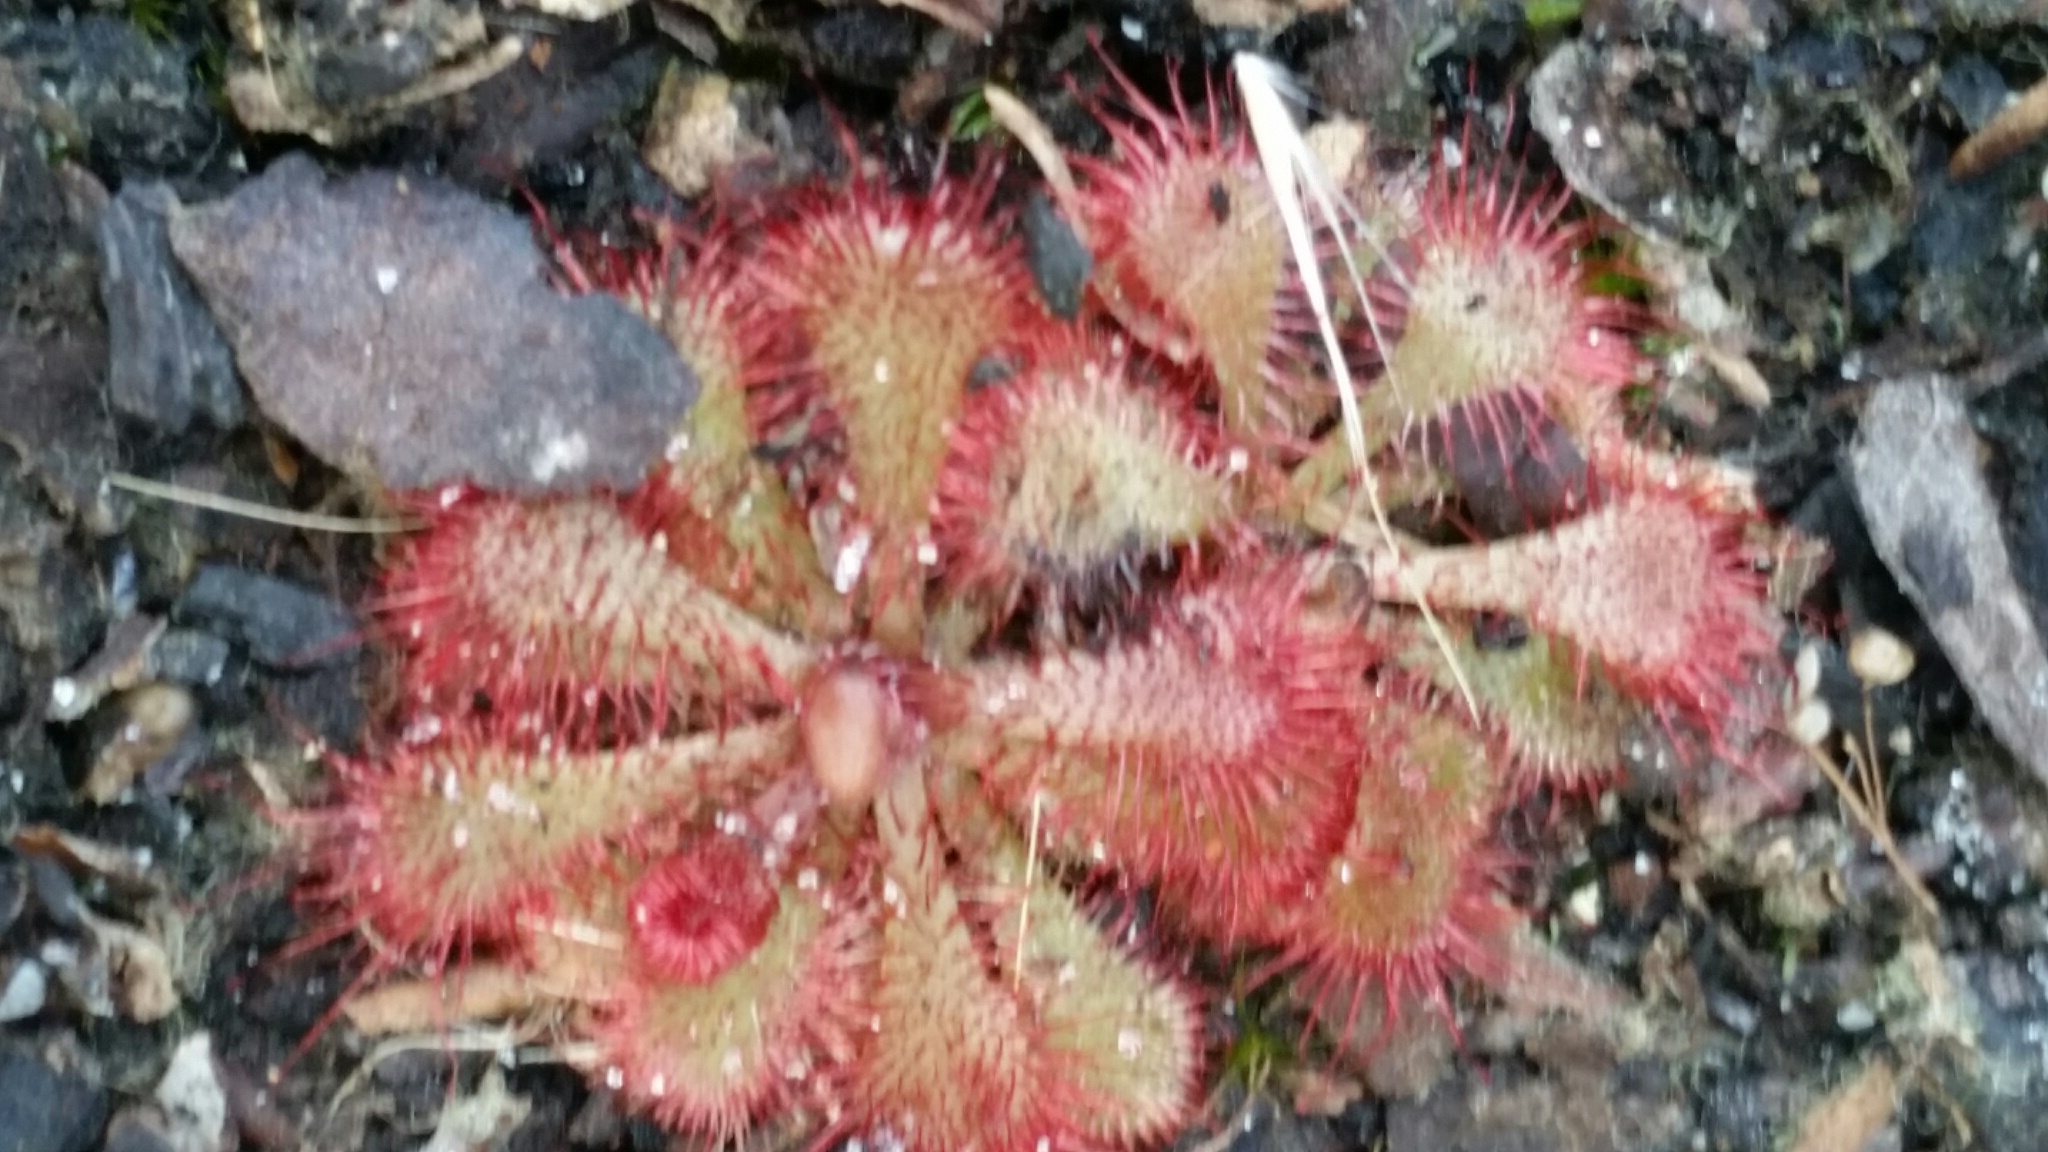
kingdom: Plantae
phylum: Tracheophyta
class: Magnoliopsida
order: Caryophyllales
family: Droseraceae
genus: Drosera
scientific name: Drosera brevifolia
